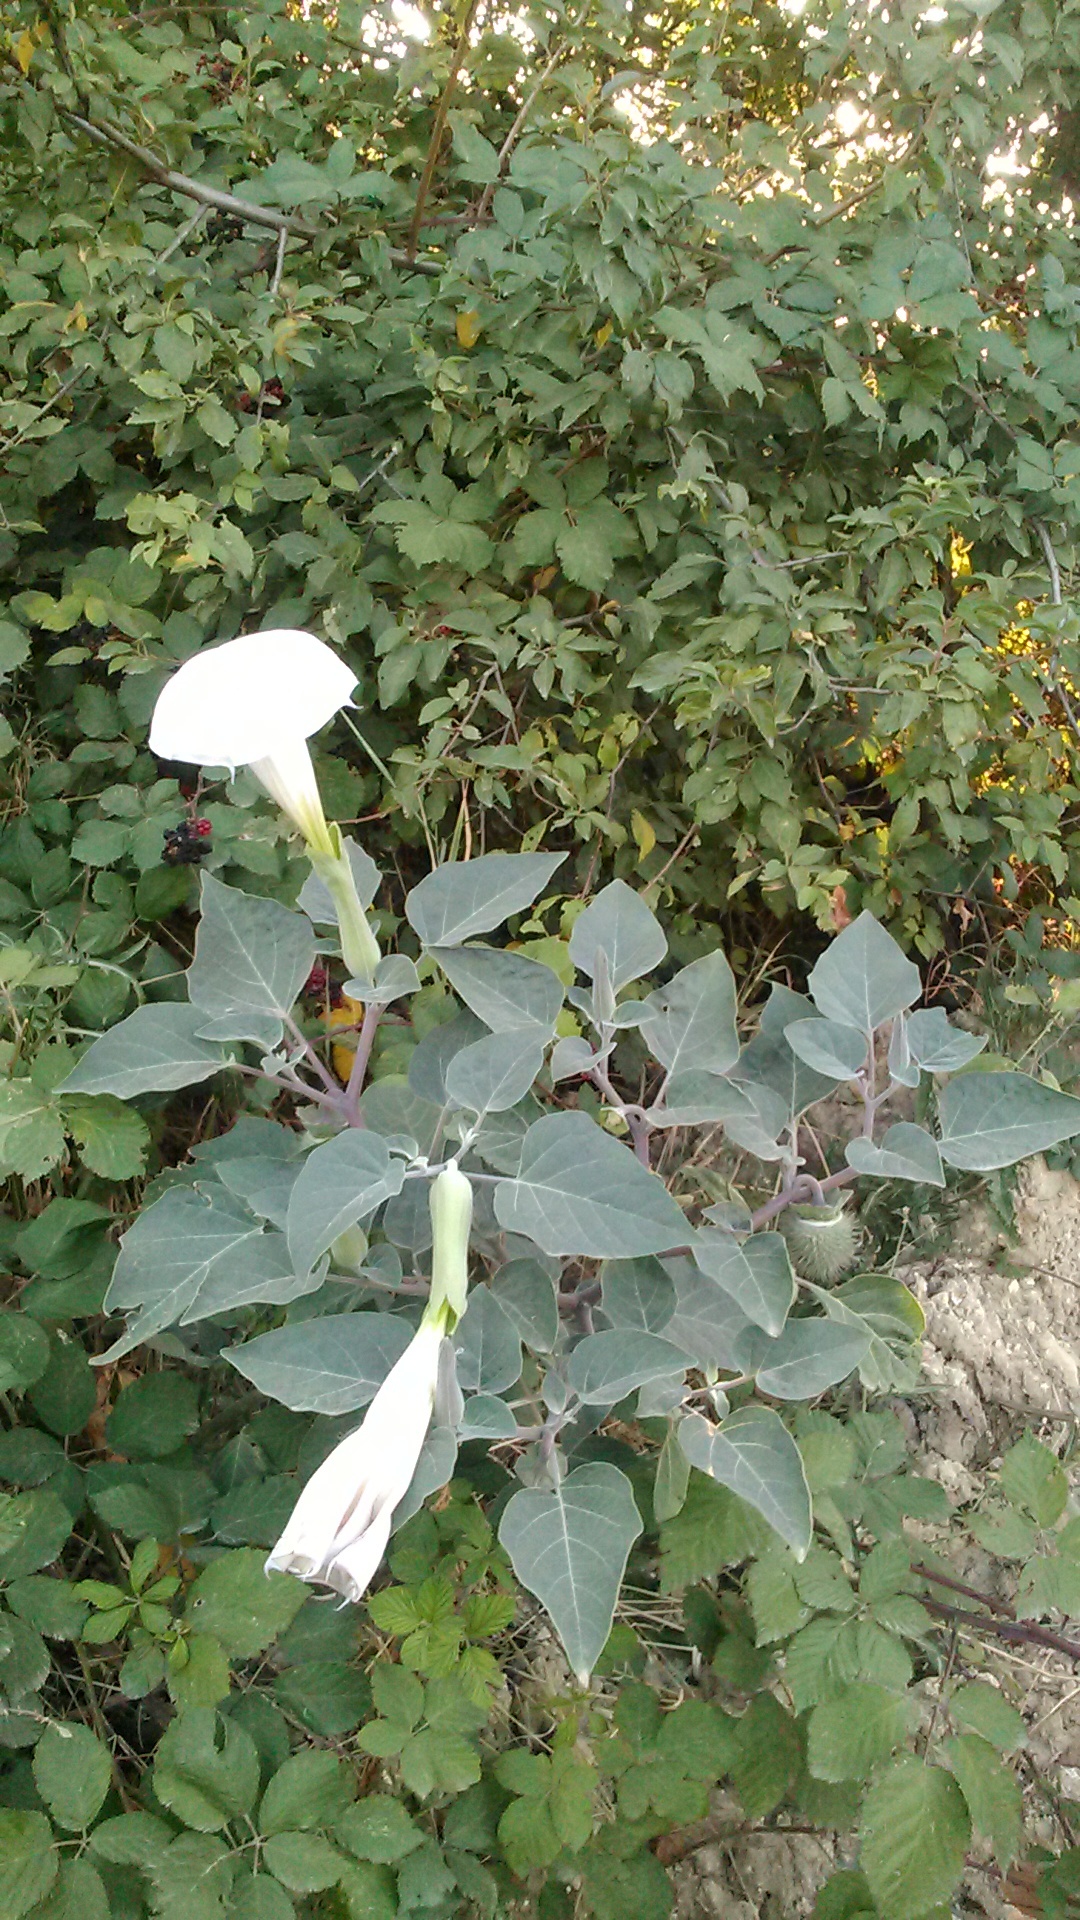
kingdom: Plantae
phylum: Tracheophyta
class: Magnoliopsida
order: Solanales
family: Solanaceae
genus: Datura
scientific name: Datura innoxia
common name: Downy thorn-apple
